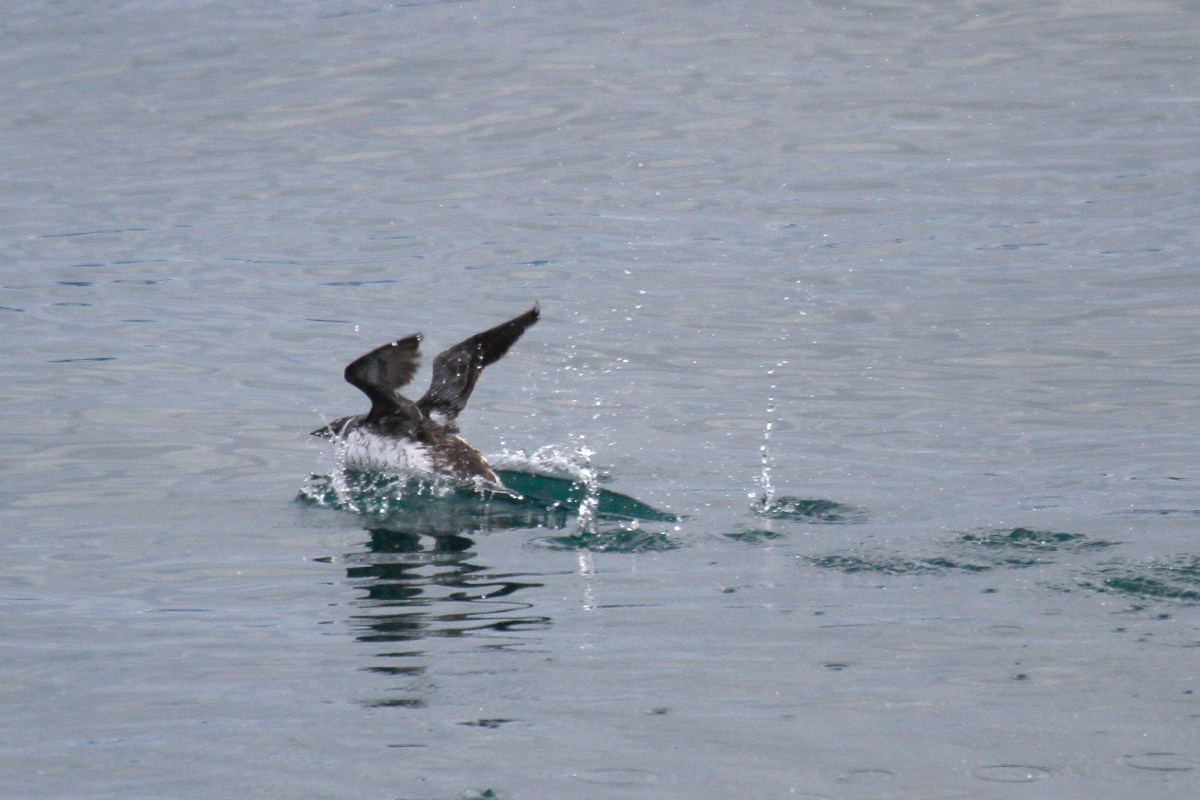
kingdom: Animalia
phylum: Chordata
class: Aves
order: Charadriiformes
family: Alcidae
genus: Brachyramphus
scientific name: Brachyramphus marmoratus
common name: Marbled murrelet
